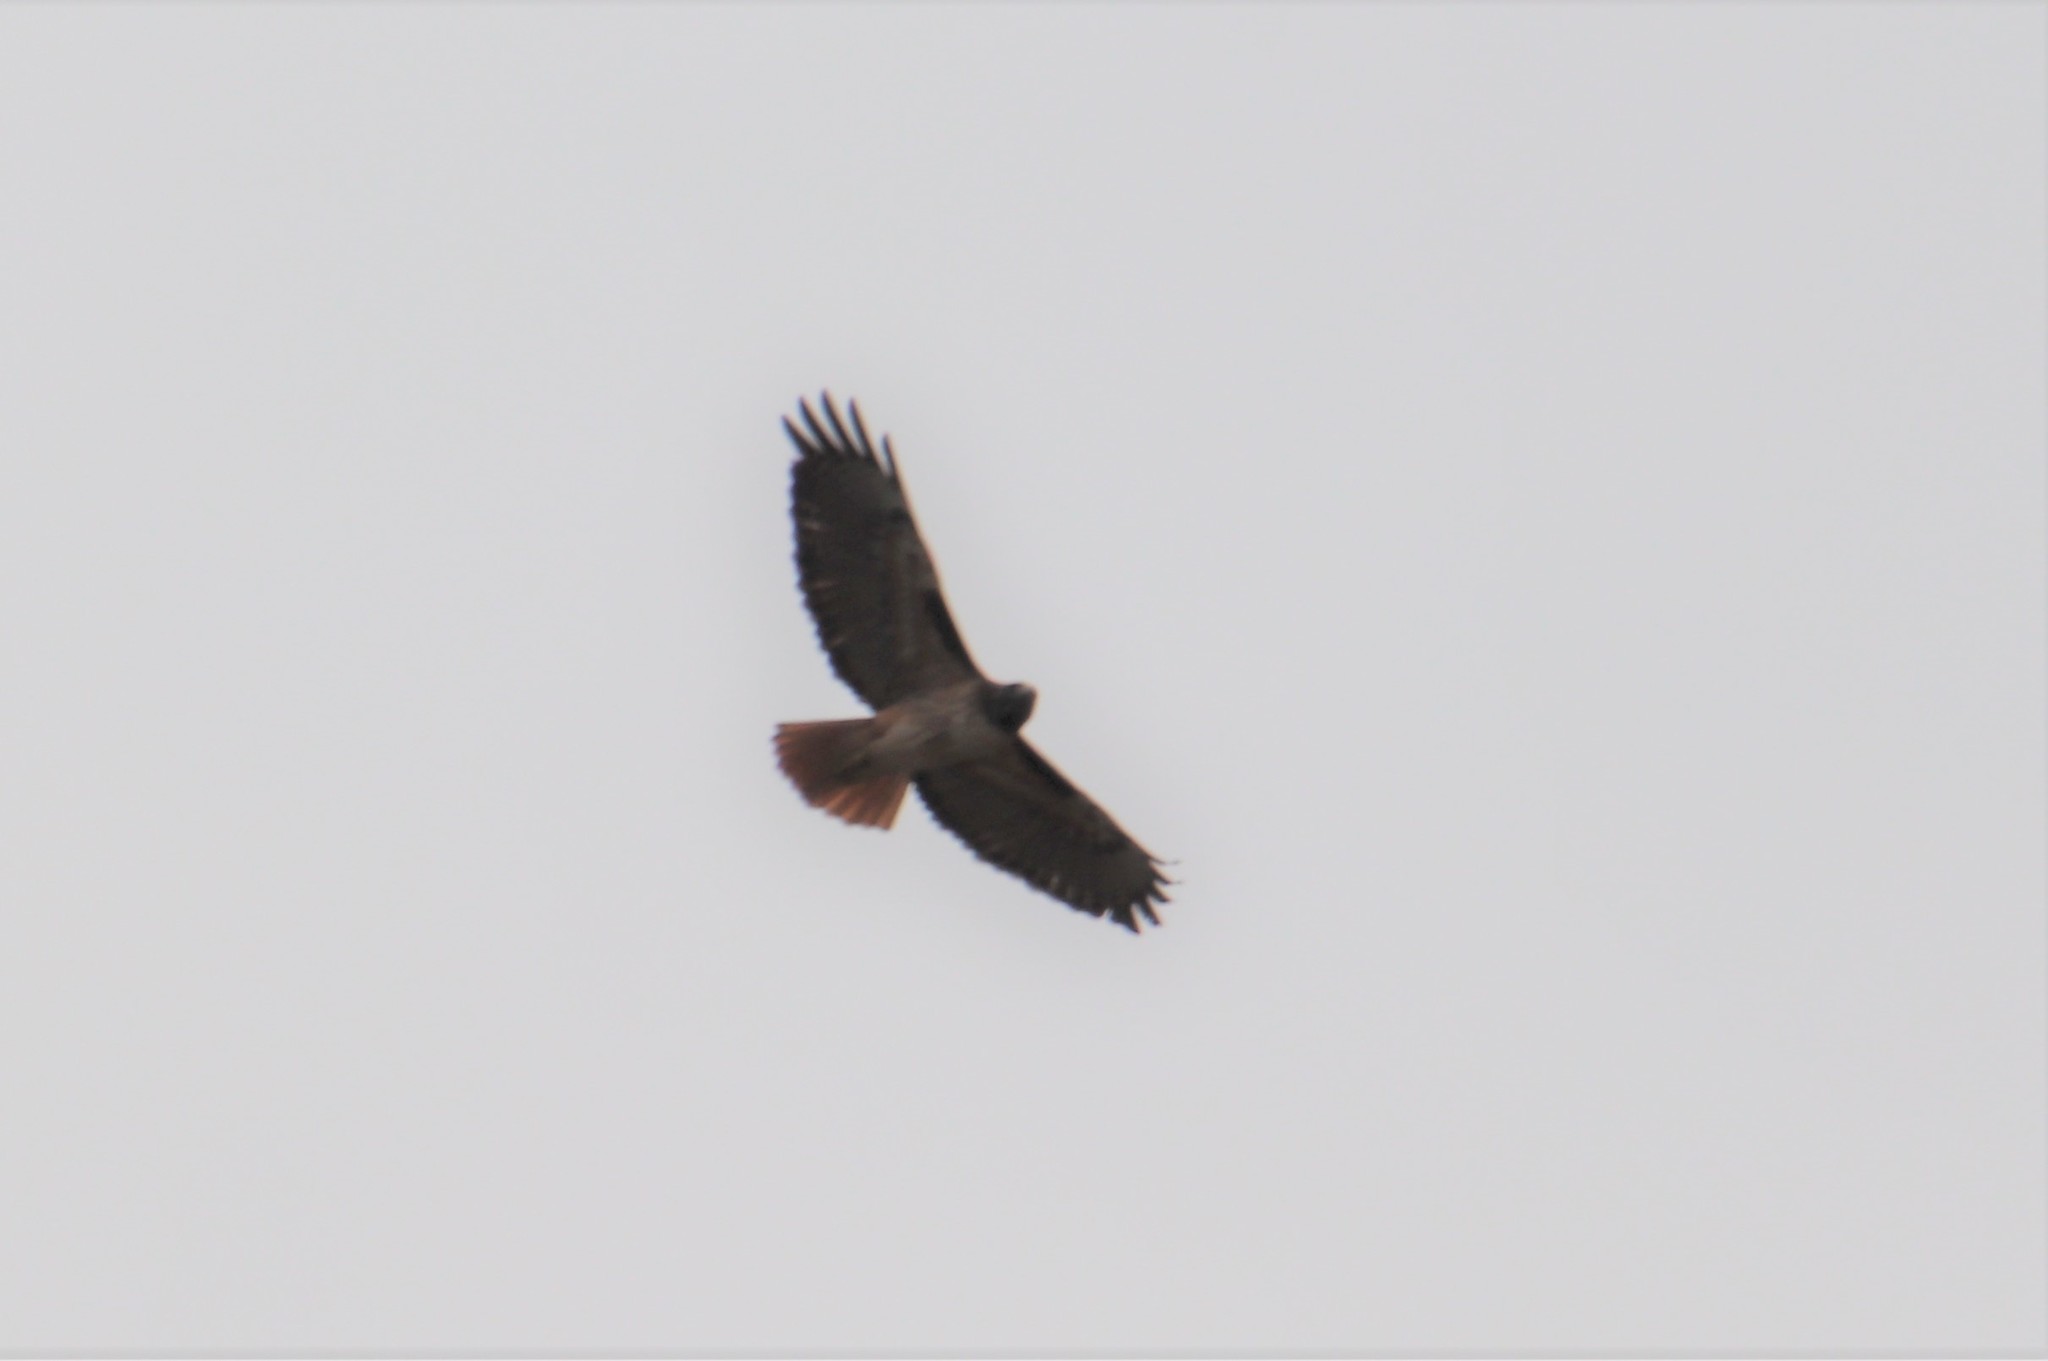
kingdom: Animalia
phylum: Chordata
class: Aves
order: Accipitriformes
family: Accipitridae
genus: Buteo
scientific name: Buteo jamaicensis
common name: Red-tailed hawk
